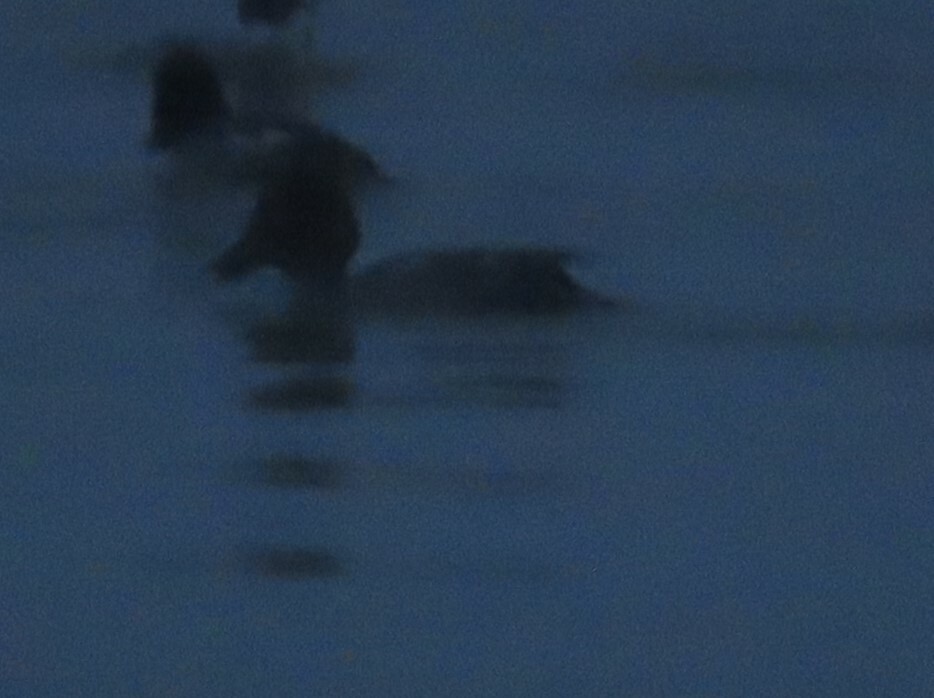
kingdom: Animalia
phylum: Chordata
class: Aves
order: Anseriformes
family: Anatidae
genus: Bucephala
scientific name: Bucephala clangula
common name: Common goldeneye
